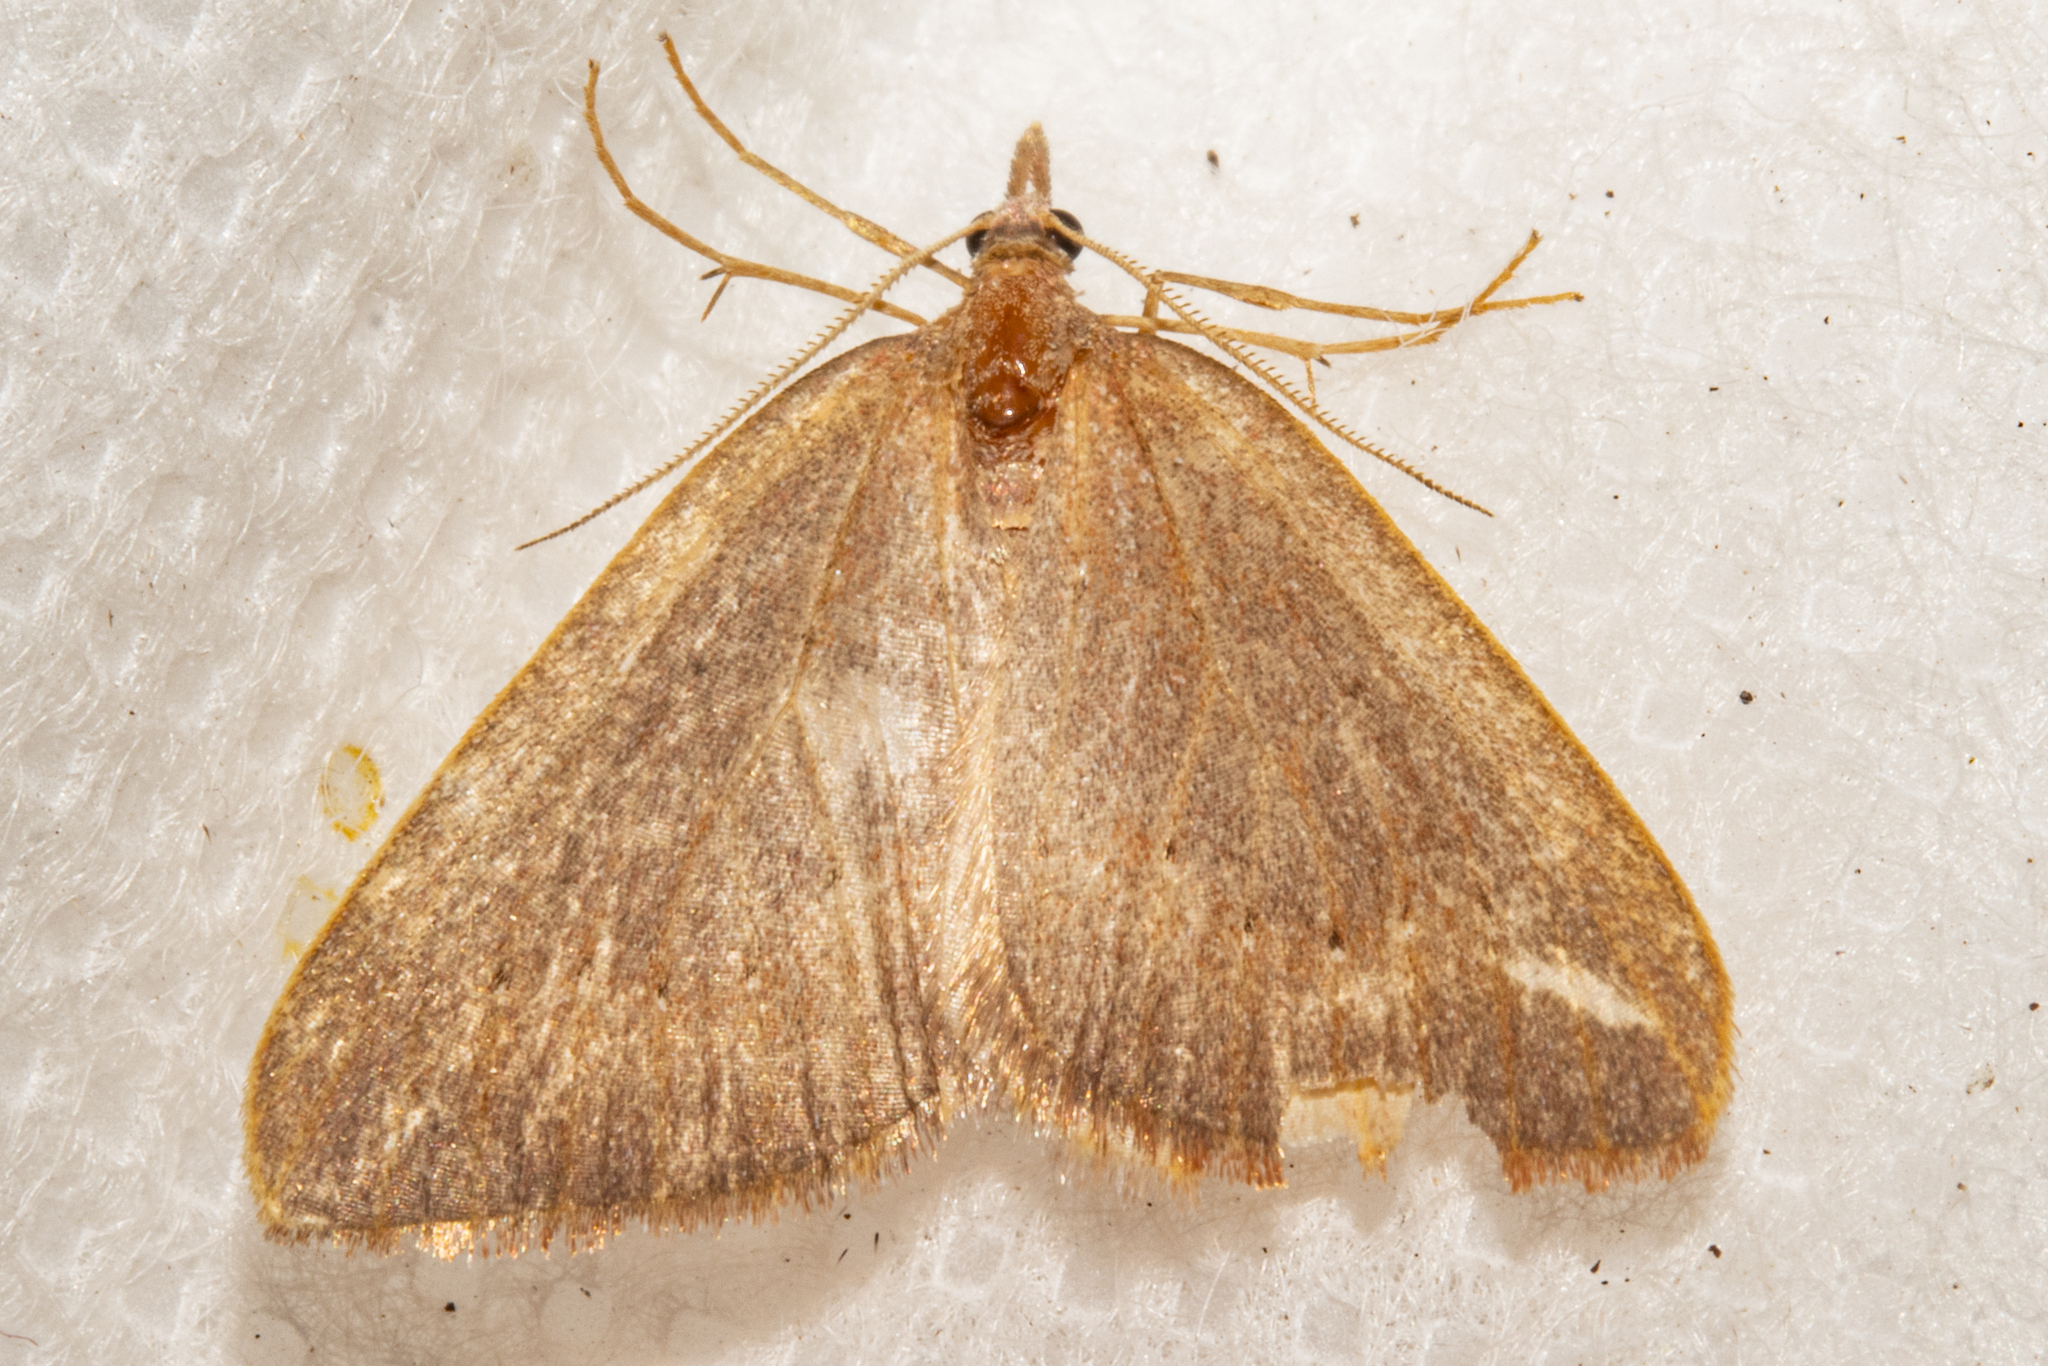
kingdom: Animalia
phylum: Arthropoda
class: Insecta
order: Lepidoptera
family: Geometridae
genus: Xanthorhoe
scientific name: Xanthorhoe occulta
